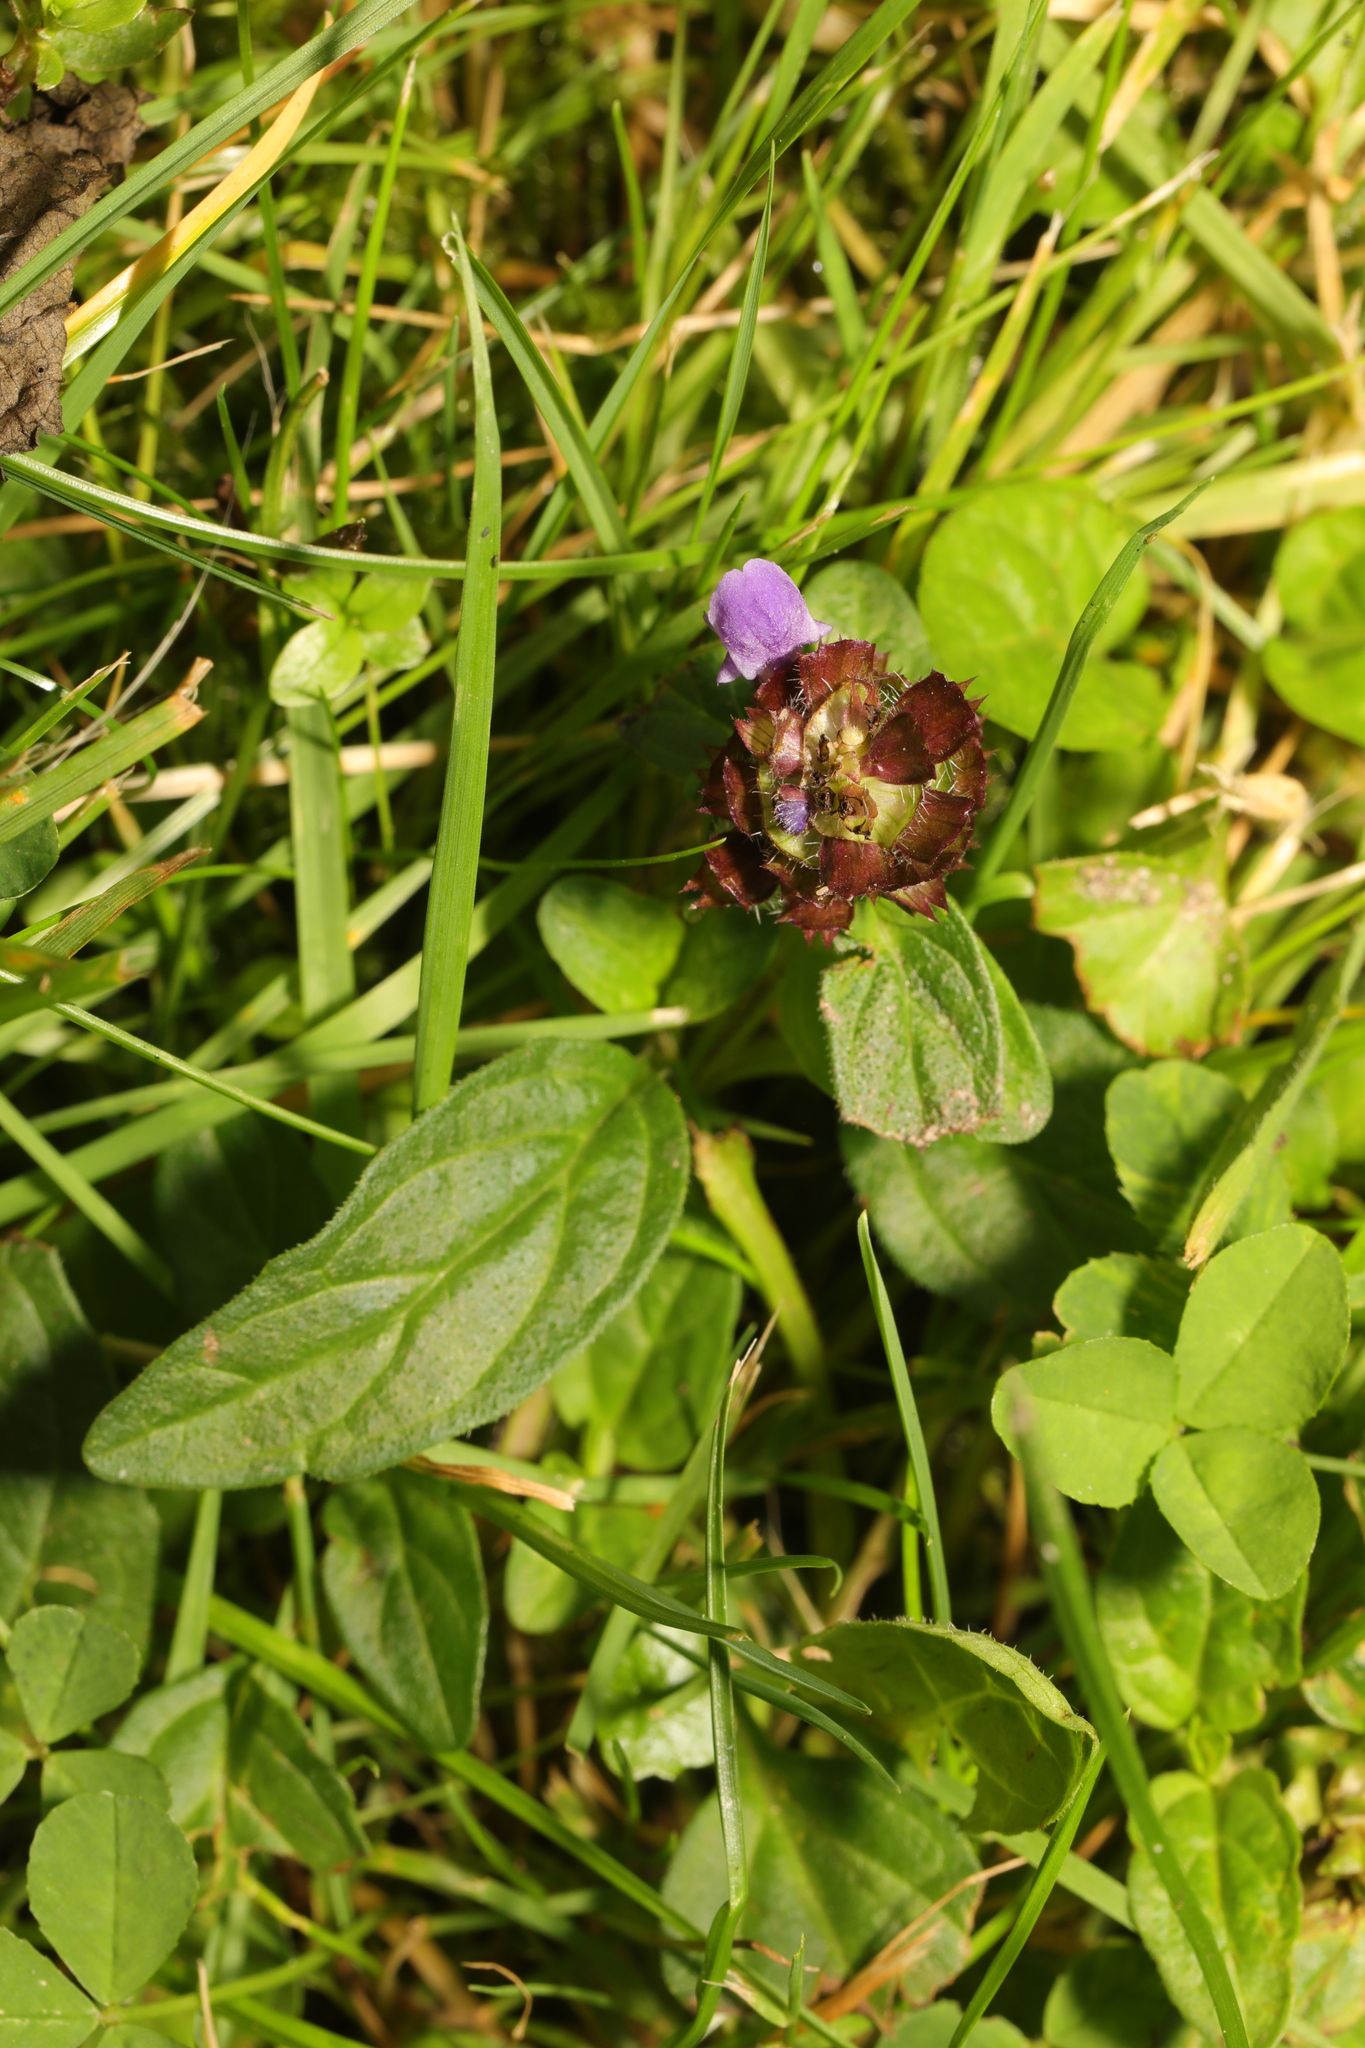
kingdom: Plantae
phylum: Tracheophyta
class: Magnoliopsida
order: Lamiales
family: Lamiaceae
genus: Prunella
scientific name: Prunella vulgaris
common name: Heal-all
